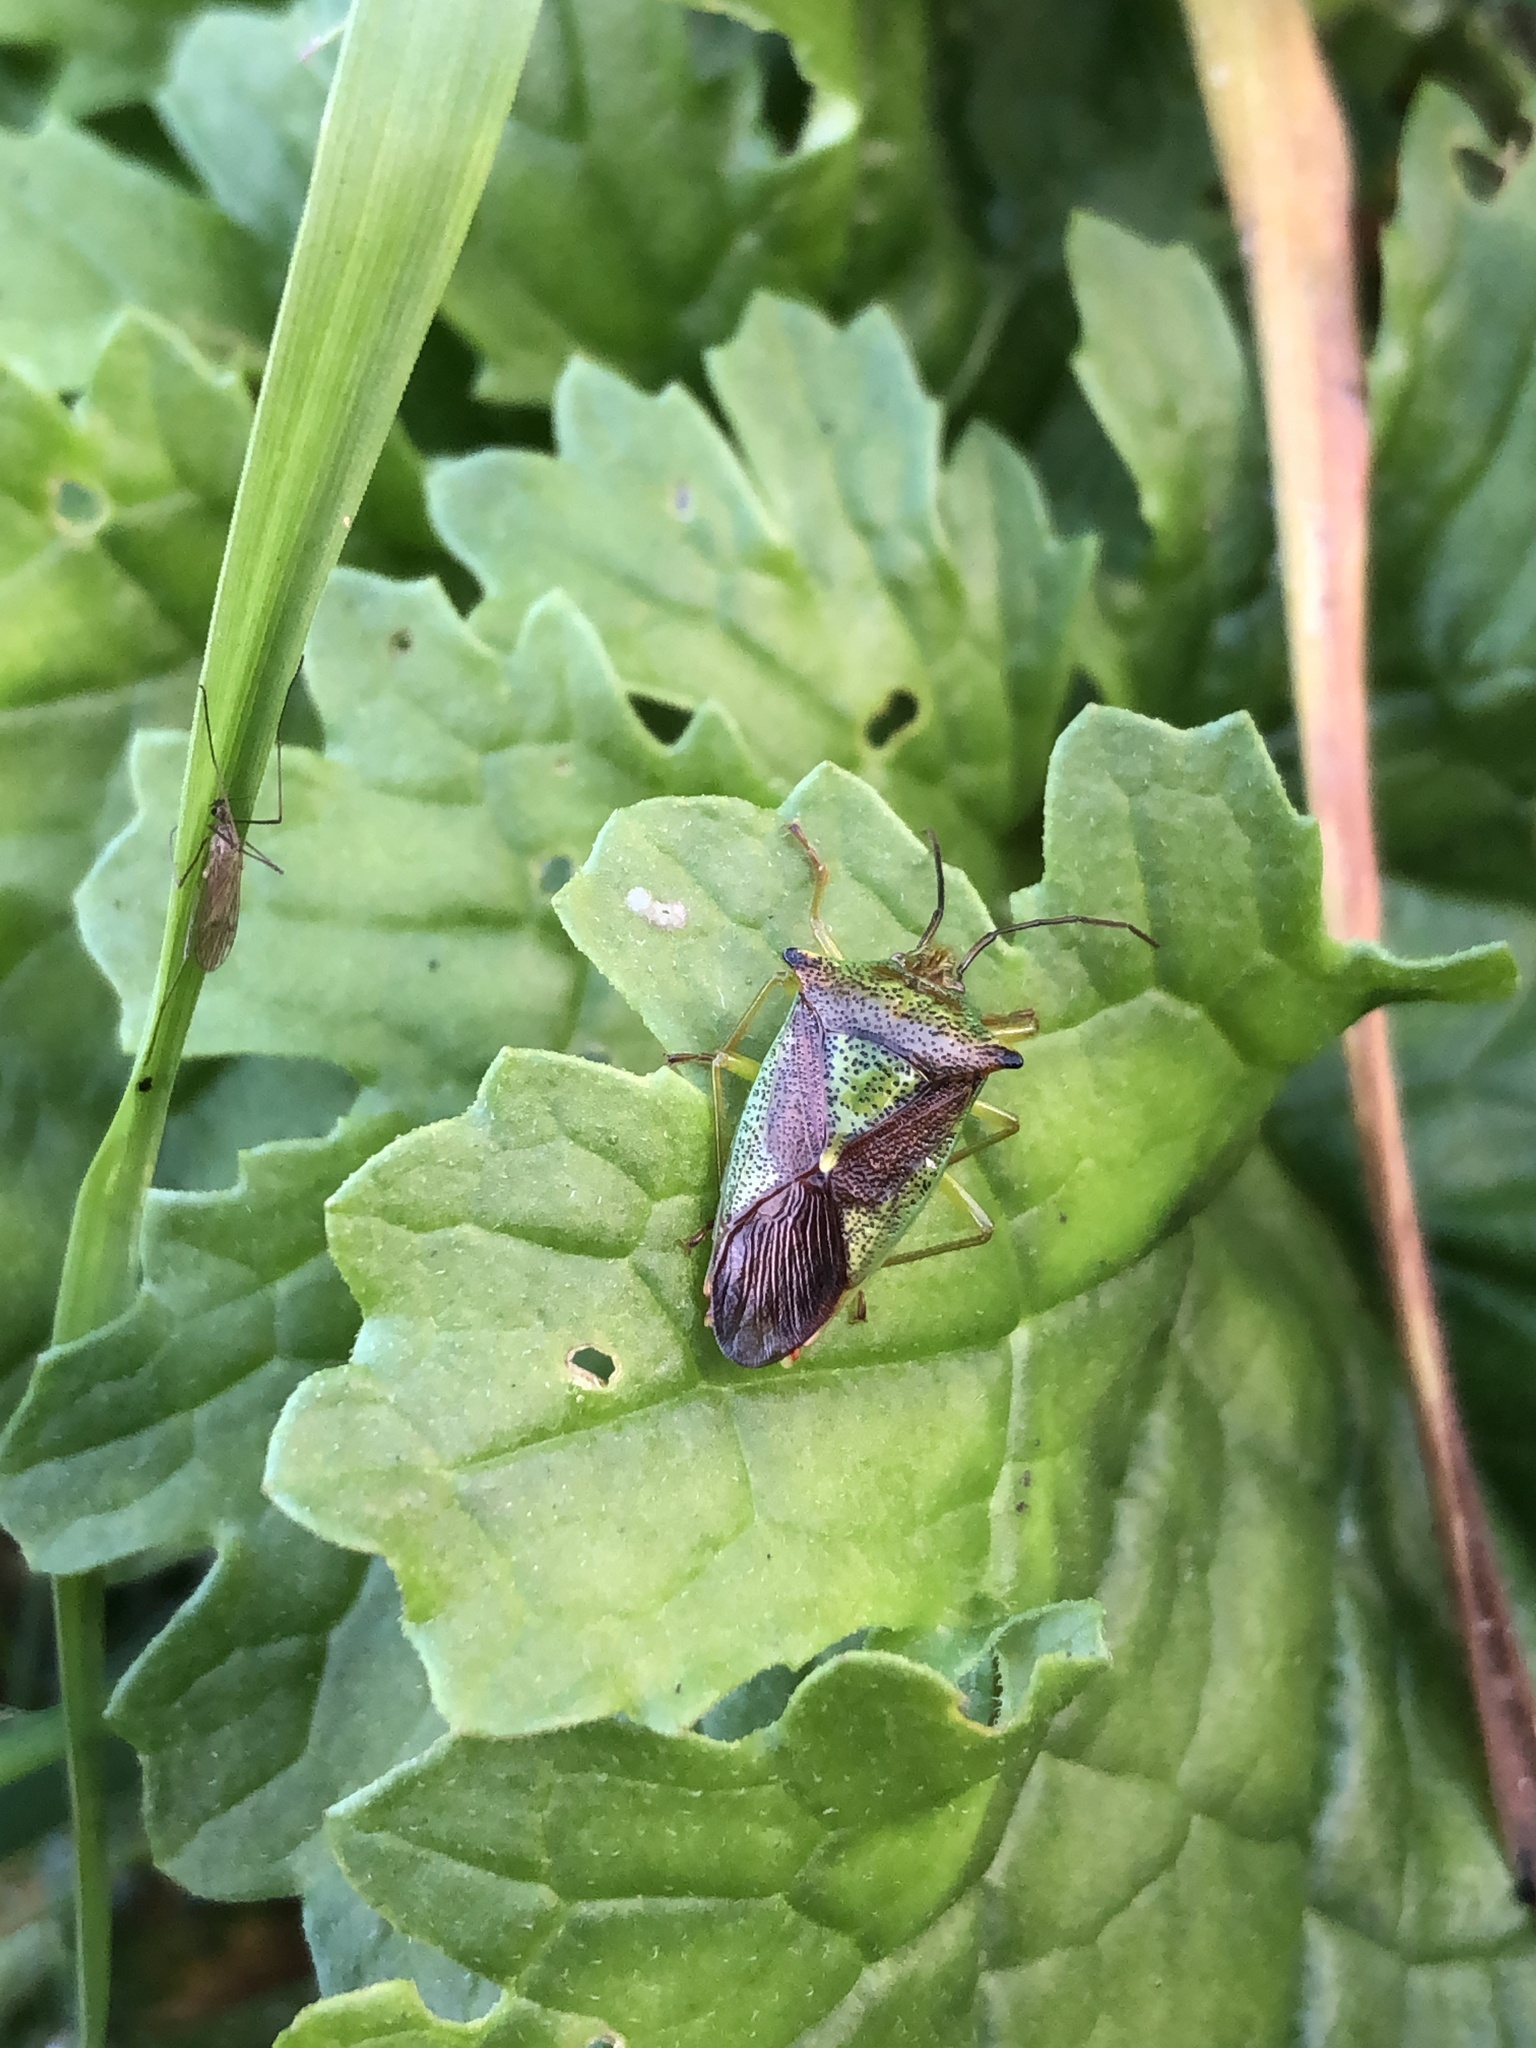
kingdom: Animalia
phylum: Arthropoda
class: Insecta
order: Hemiptera
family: Acanthosomatidae
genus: Acanthosoma
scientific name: Acanthosoma haemorrhoidale
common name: Hawthorn shieldbug
